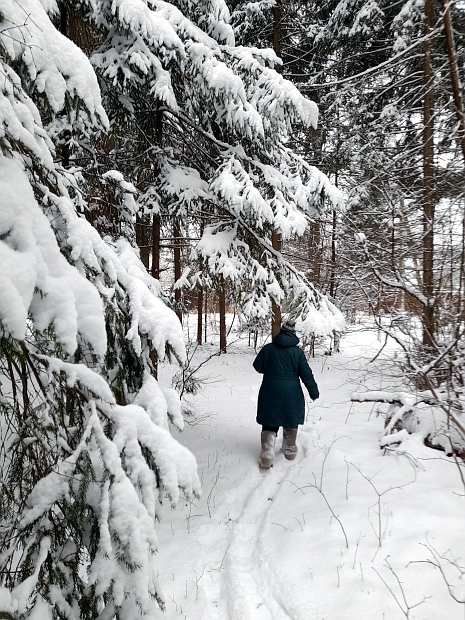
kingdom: Plantae
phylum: Tracheophyta
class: Pinopsida
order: Pinales
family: Pinaceae
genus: Picea
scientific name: Picea abies
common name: Norway spruce
